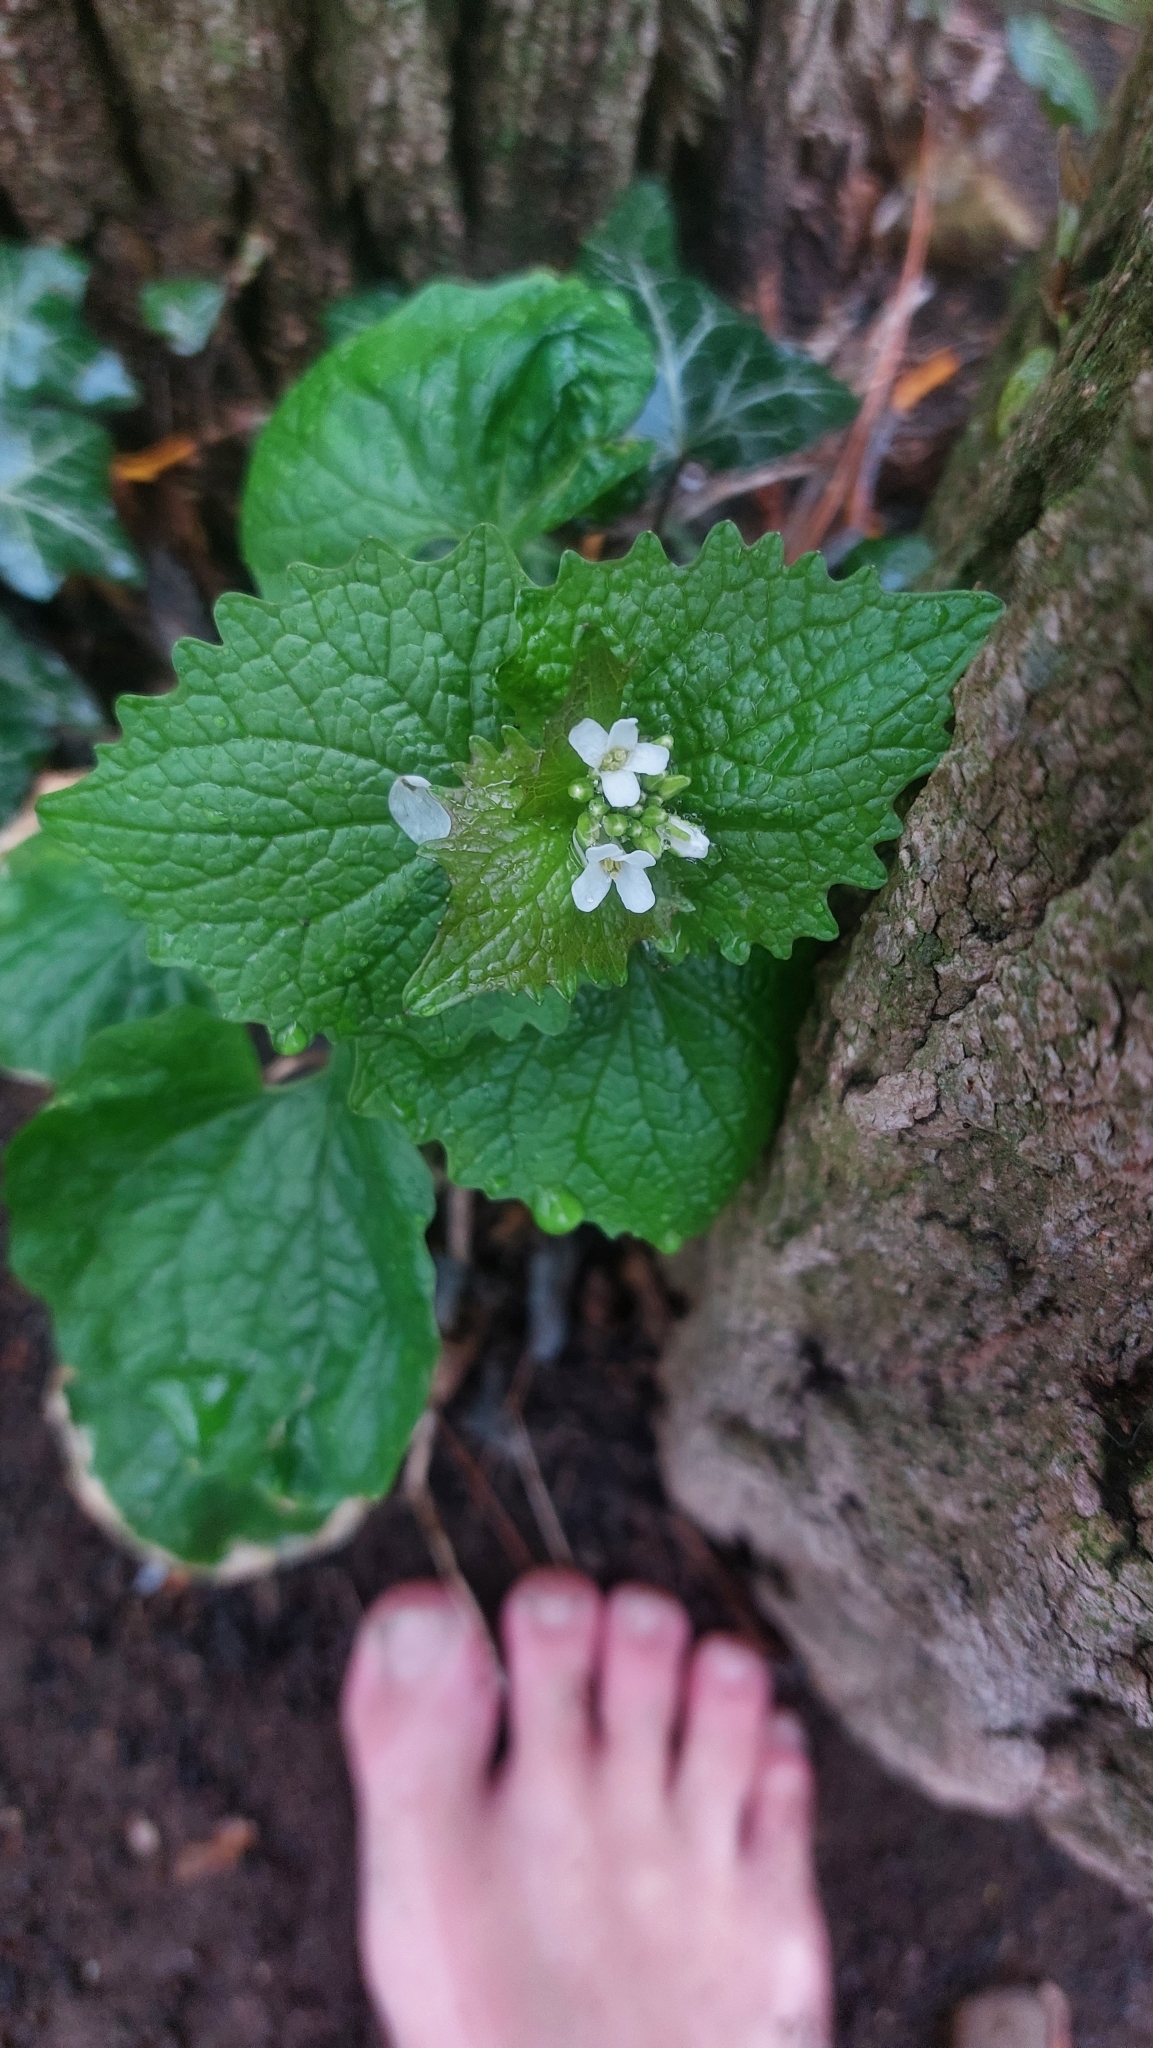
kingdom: Plantae
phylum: Tracheophyta
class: Magnoliopsida
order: Brassicales
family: Brassicaceae
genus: Alliaria
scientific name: Alliaria petiolata
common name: Garlic mustard
